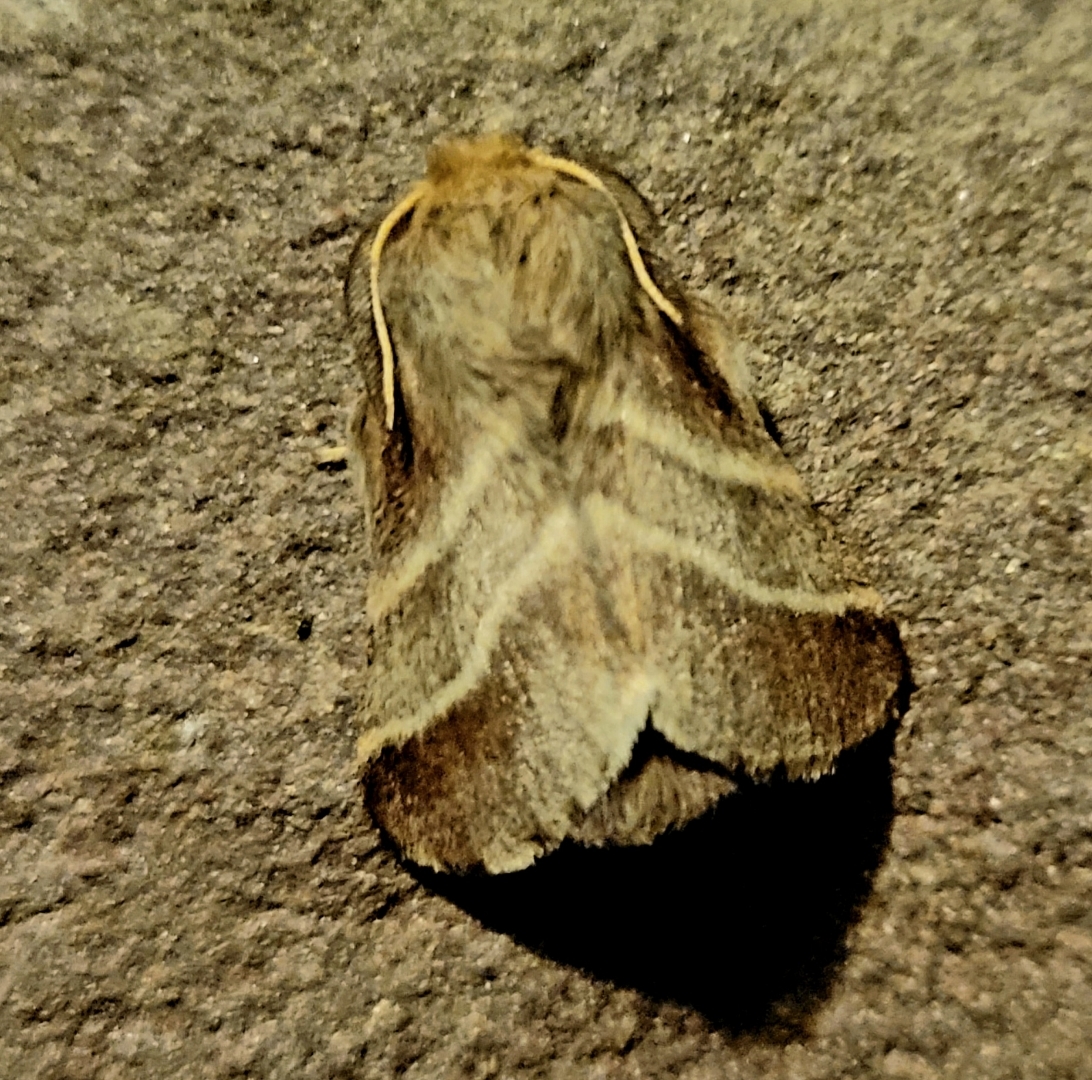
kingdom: Animalia
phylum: Arthropoda
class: Insecta
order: Lepidoptera
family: Lasiocampidae
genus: Malacosoma
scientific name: Malacosoma americana
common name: Eastern tent caterpillar moth
